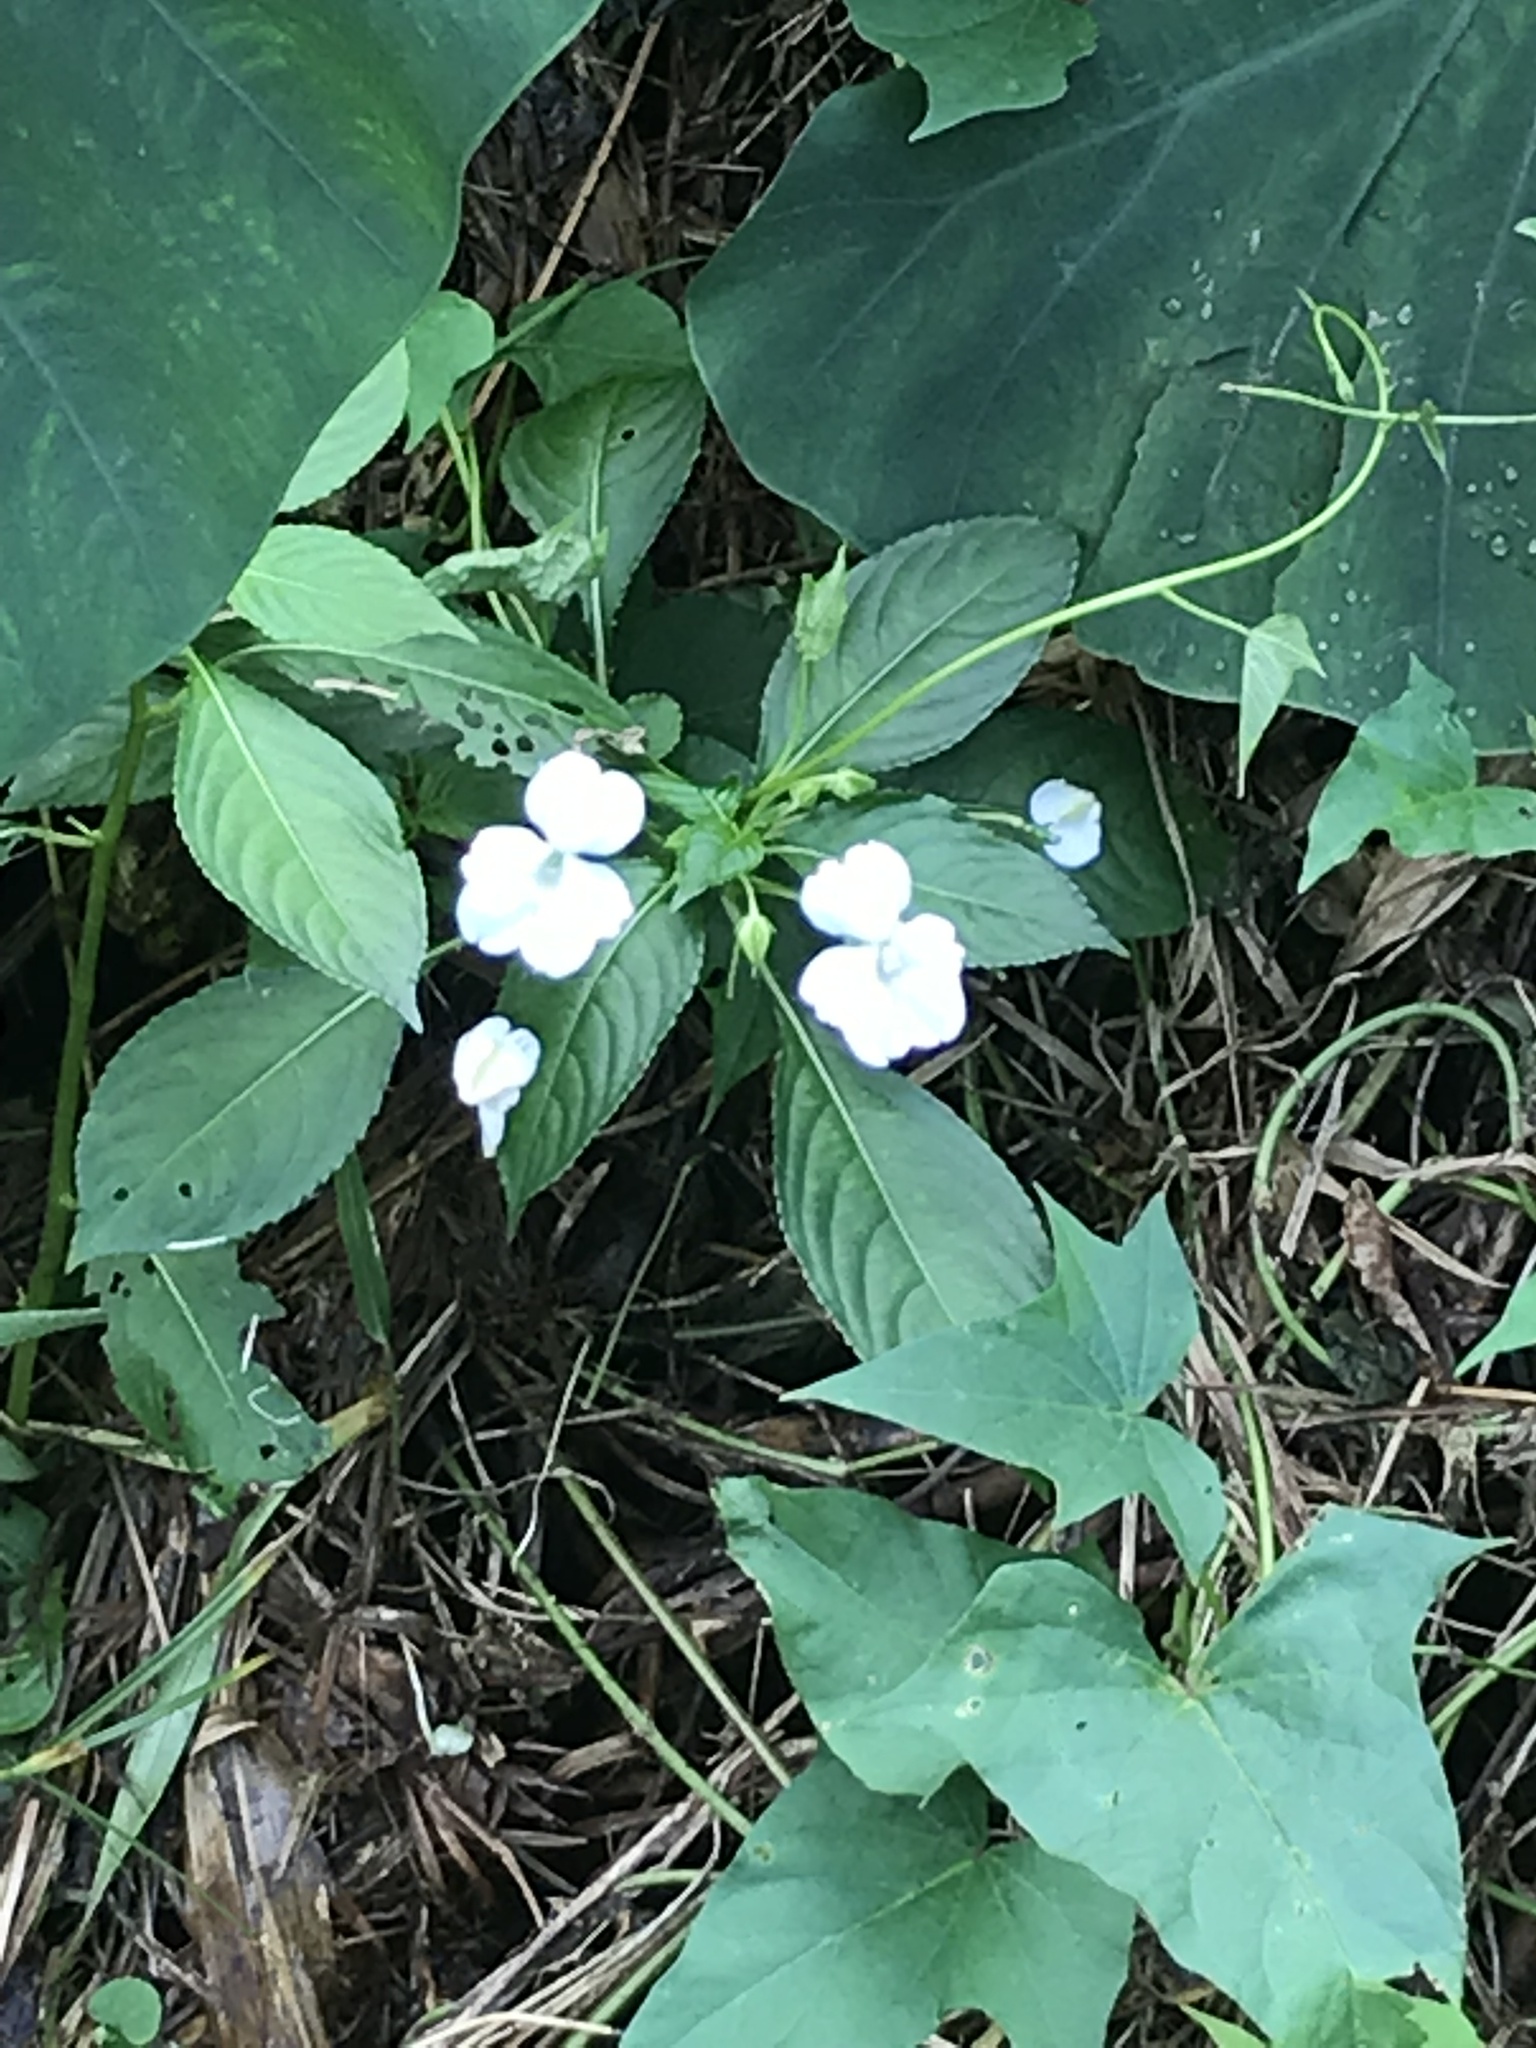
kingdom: Plantae
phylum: Tracheophyta
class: Magnoliopsida
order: Ericales
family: Balsaminaceae
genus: Impatiens
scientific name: Impatiens flaccida
